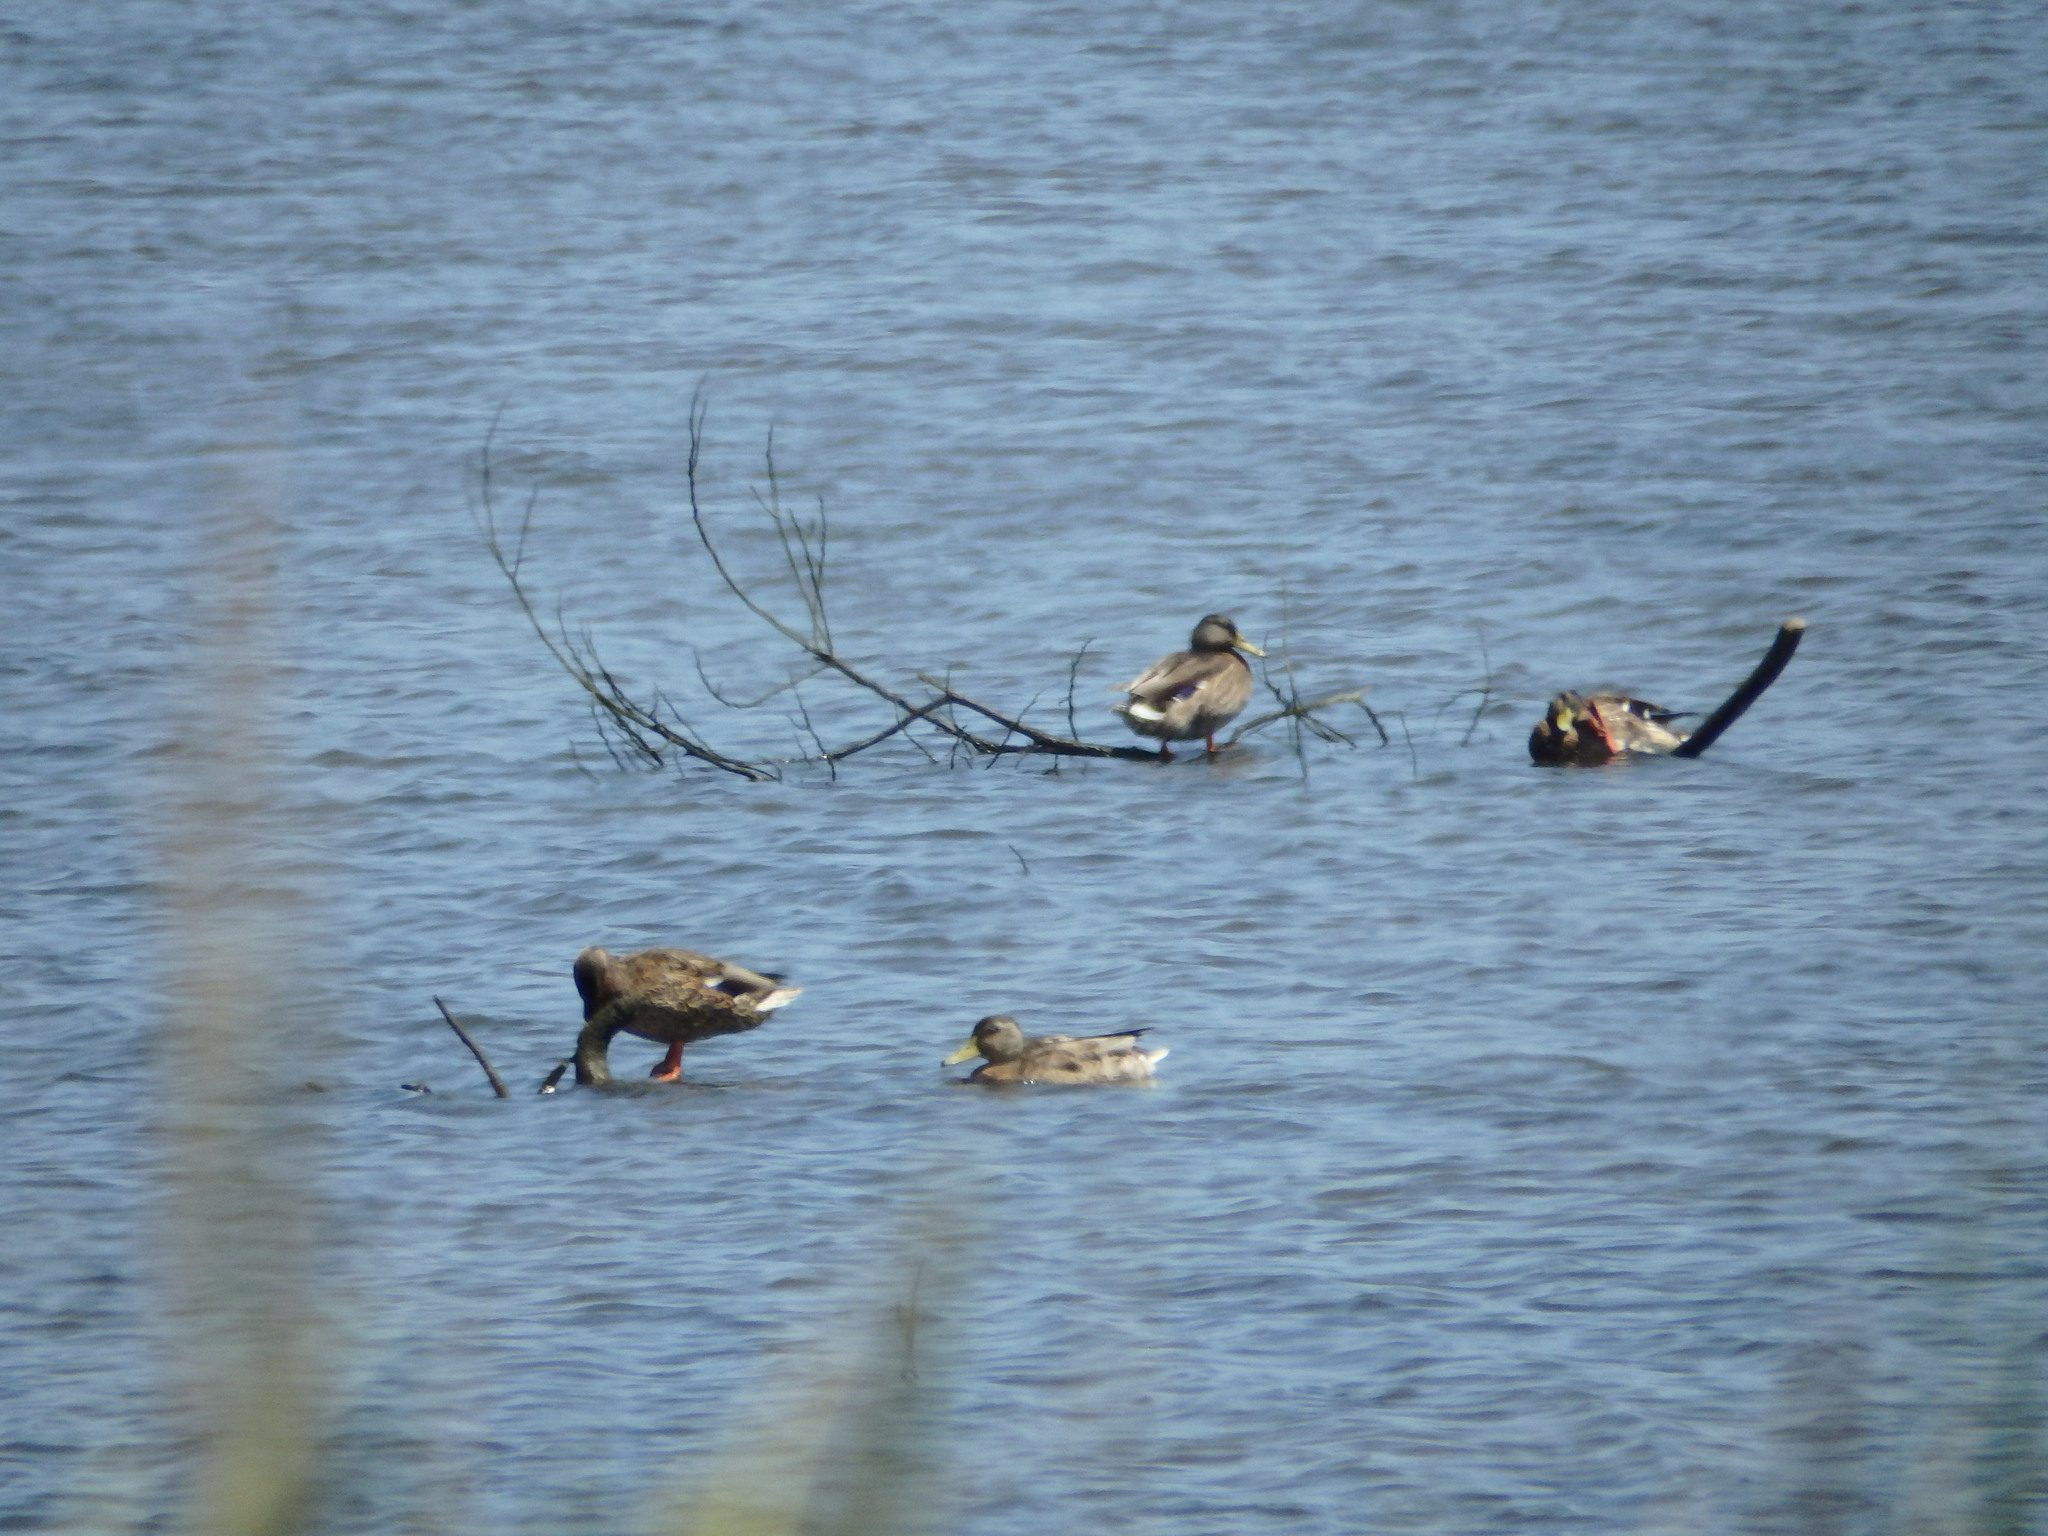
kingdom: Animalia
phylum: Chordata
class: Aves
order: Anseriformes
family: Anatidae
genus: Anas
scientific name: Anas platyrhynchos
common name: Mallard
